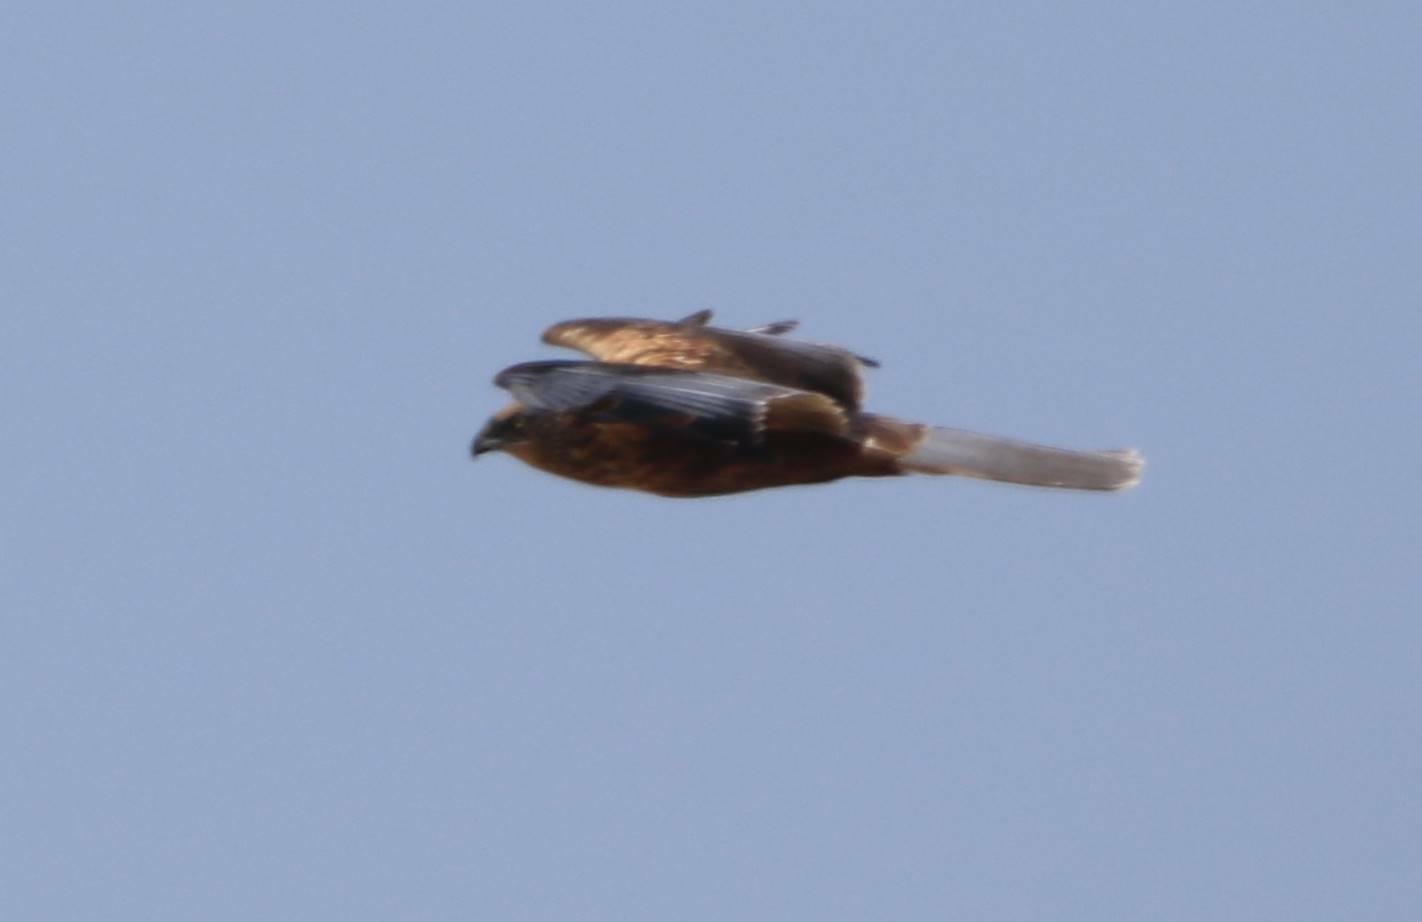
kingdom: Animalia
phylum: Chordata
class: Aves
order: Accipitriformes
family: Accipitridae
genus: Circus
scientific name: Circus aeruginosus
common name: Western marsh harrier
